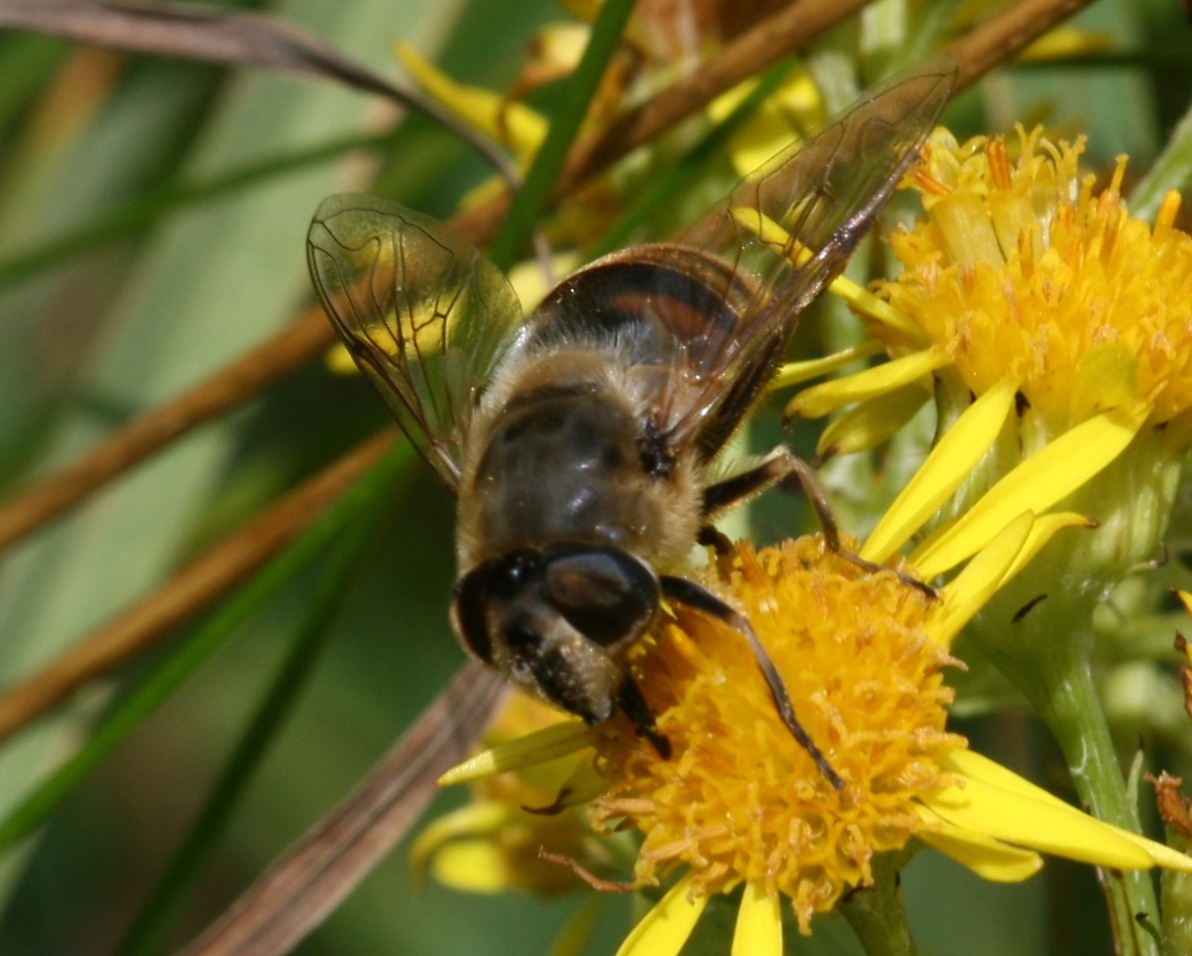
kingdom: Animalia
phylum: Arthropoda
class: Insecta
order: Diptera
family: Syrphidae
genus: Eristalis
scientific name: Eristalis tenax
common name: Drone fly
